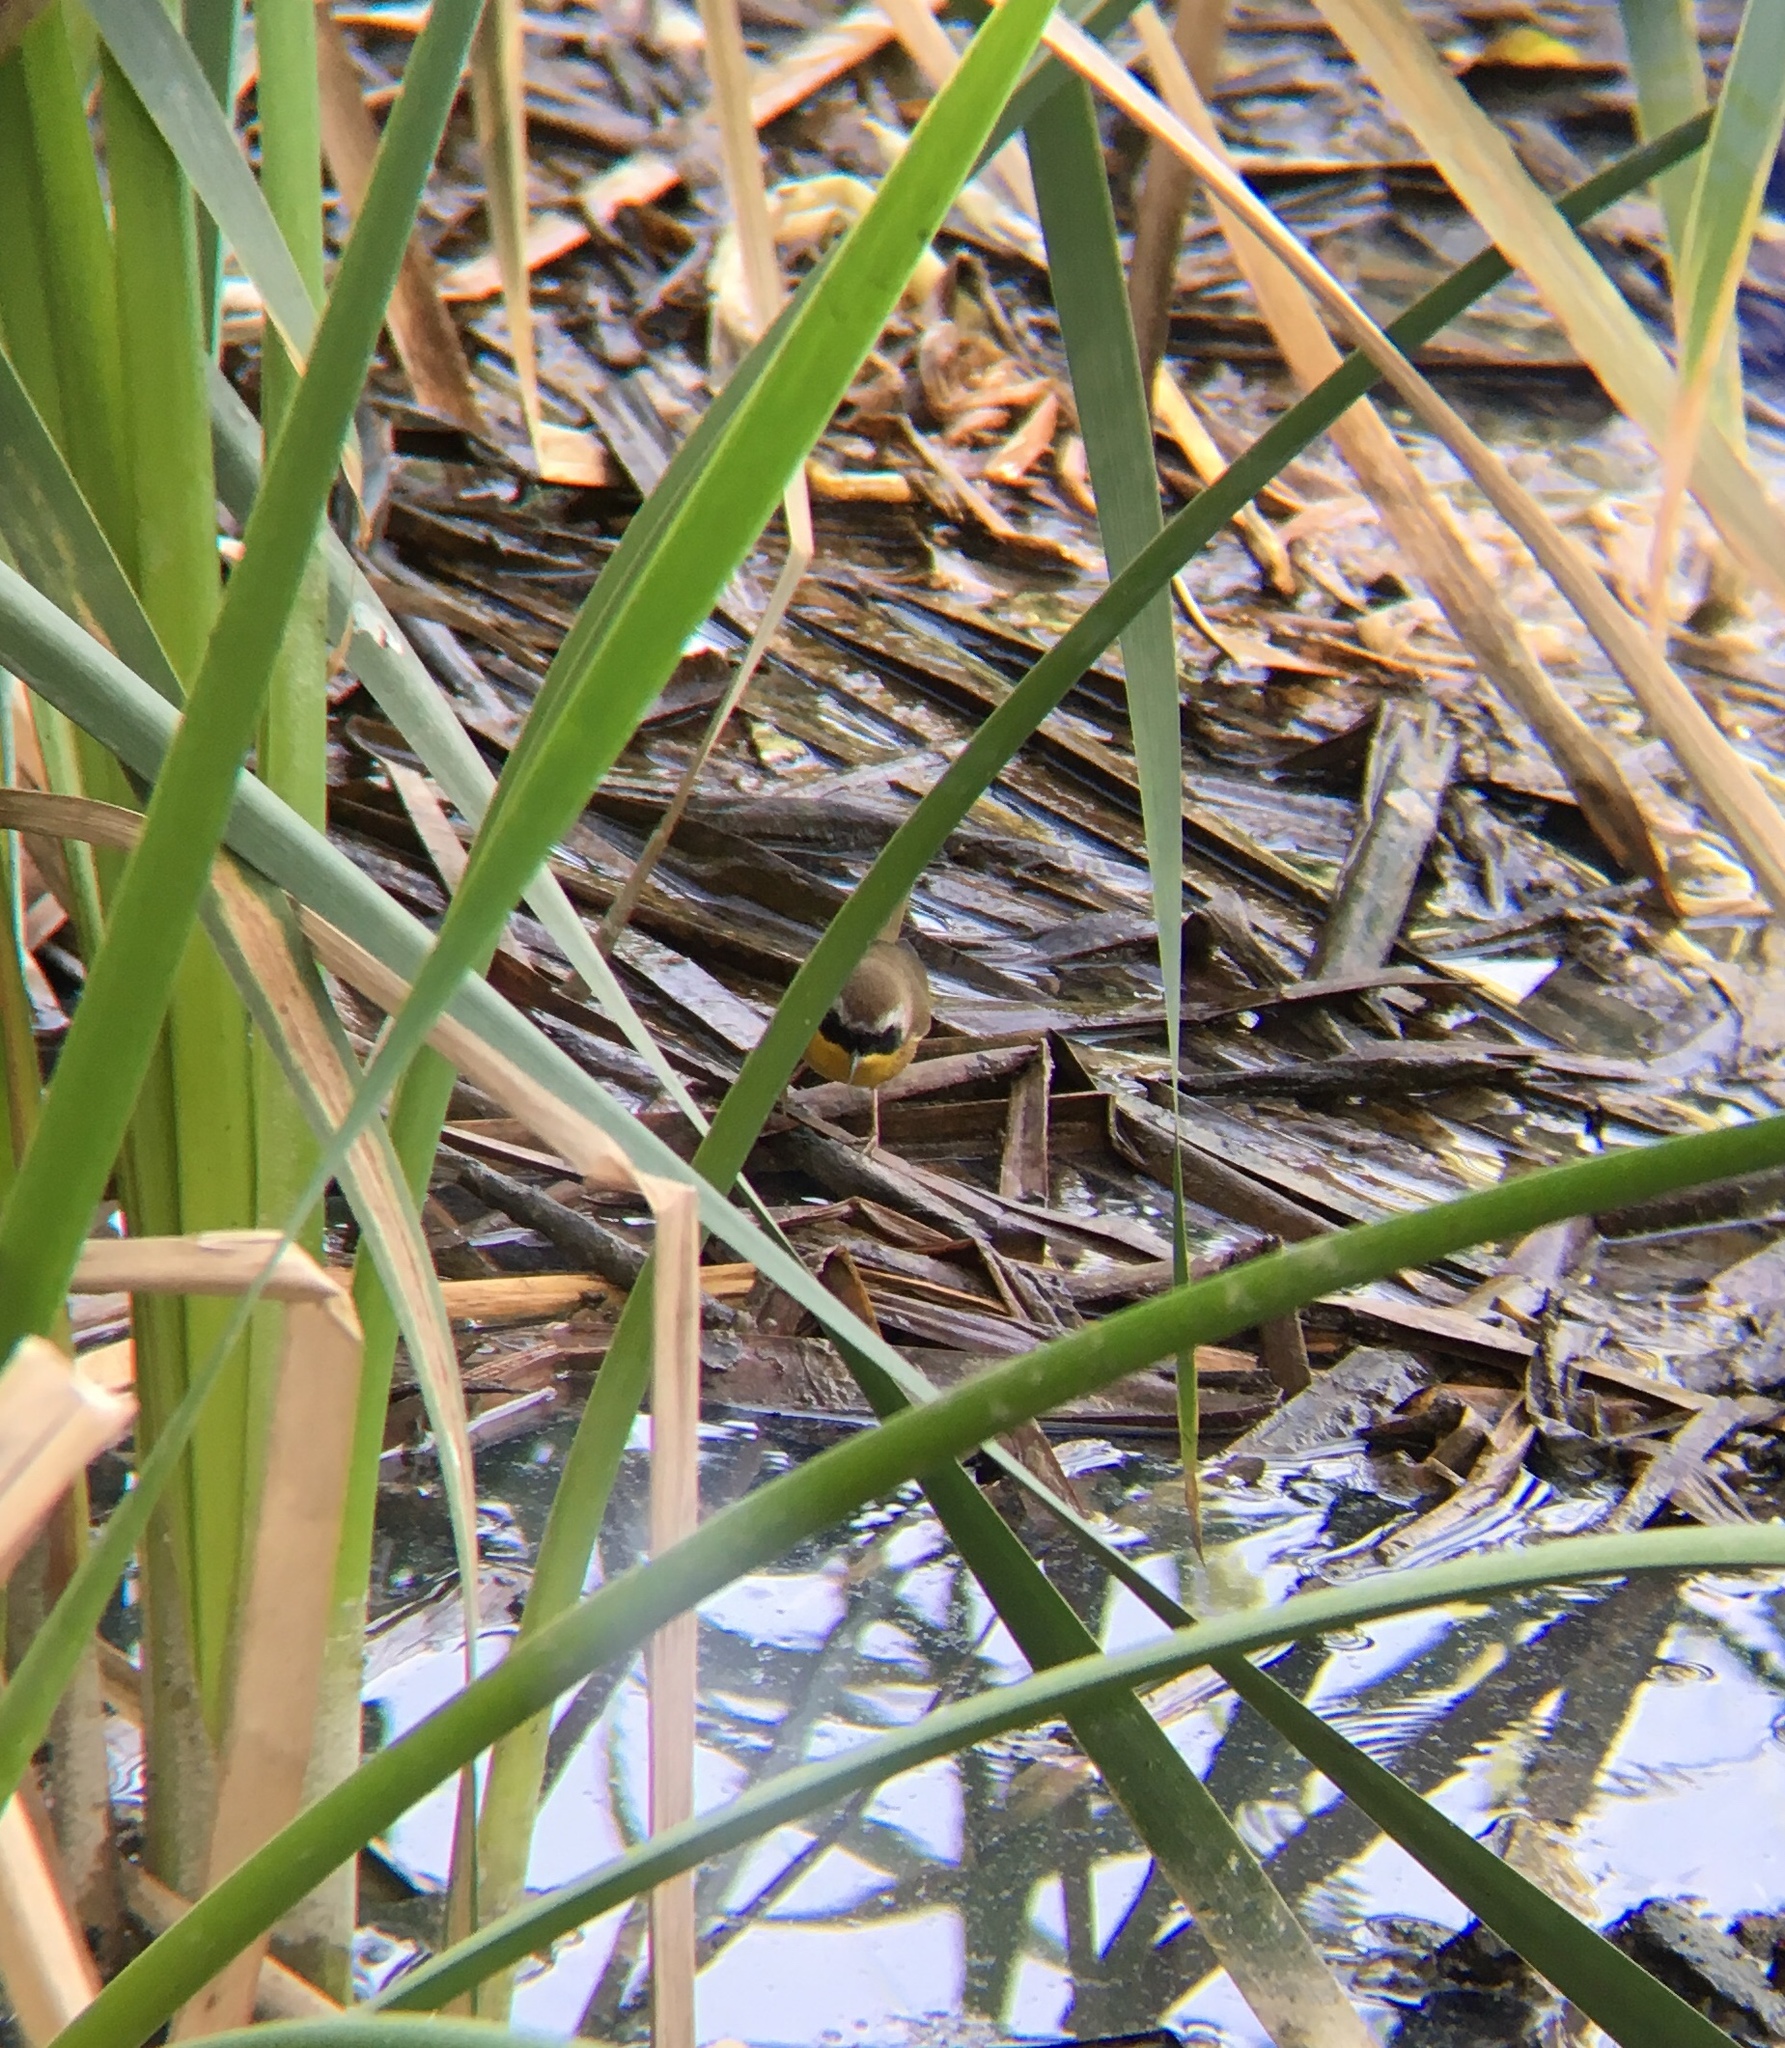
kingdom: Animalia
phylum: Chordata
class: Aves
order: Passeriformes
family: Parulidae
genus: Geothlypis
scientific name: Geothlypis trichas
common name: Common yellowthroat
